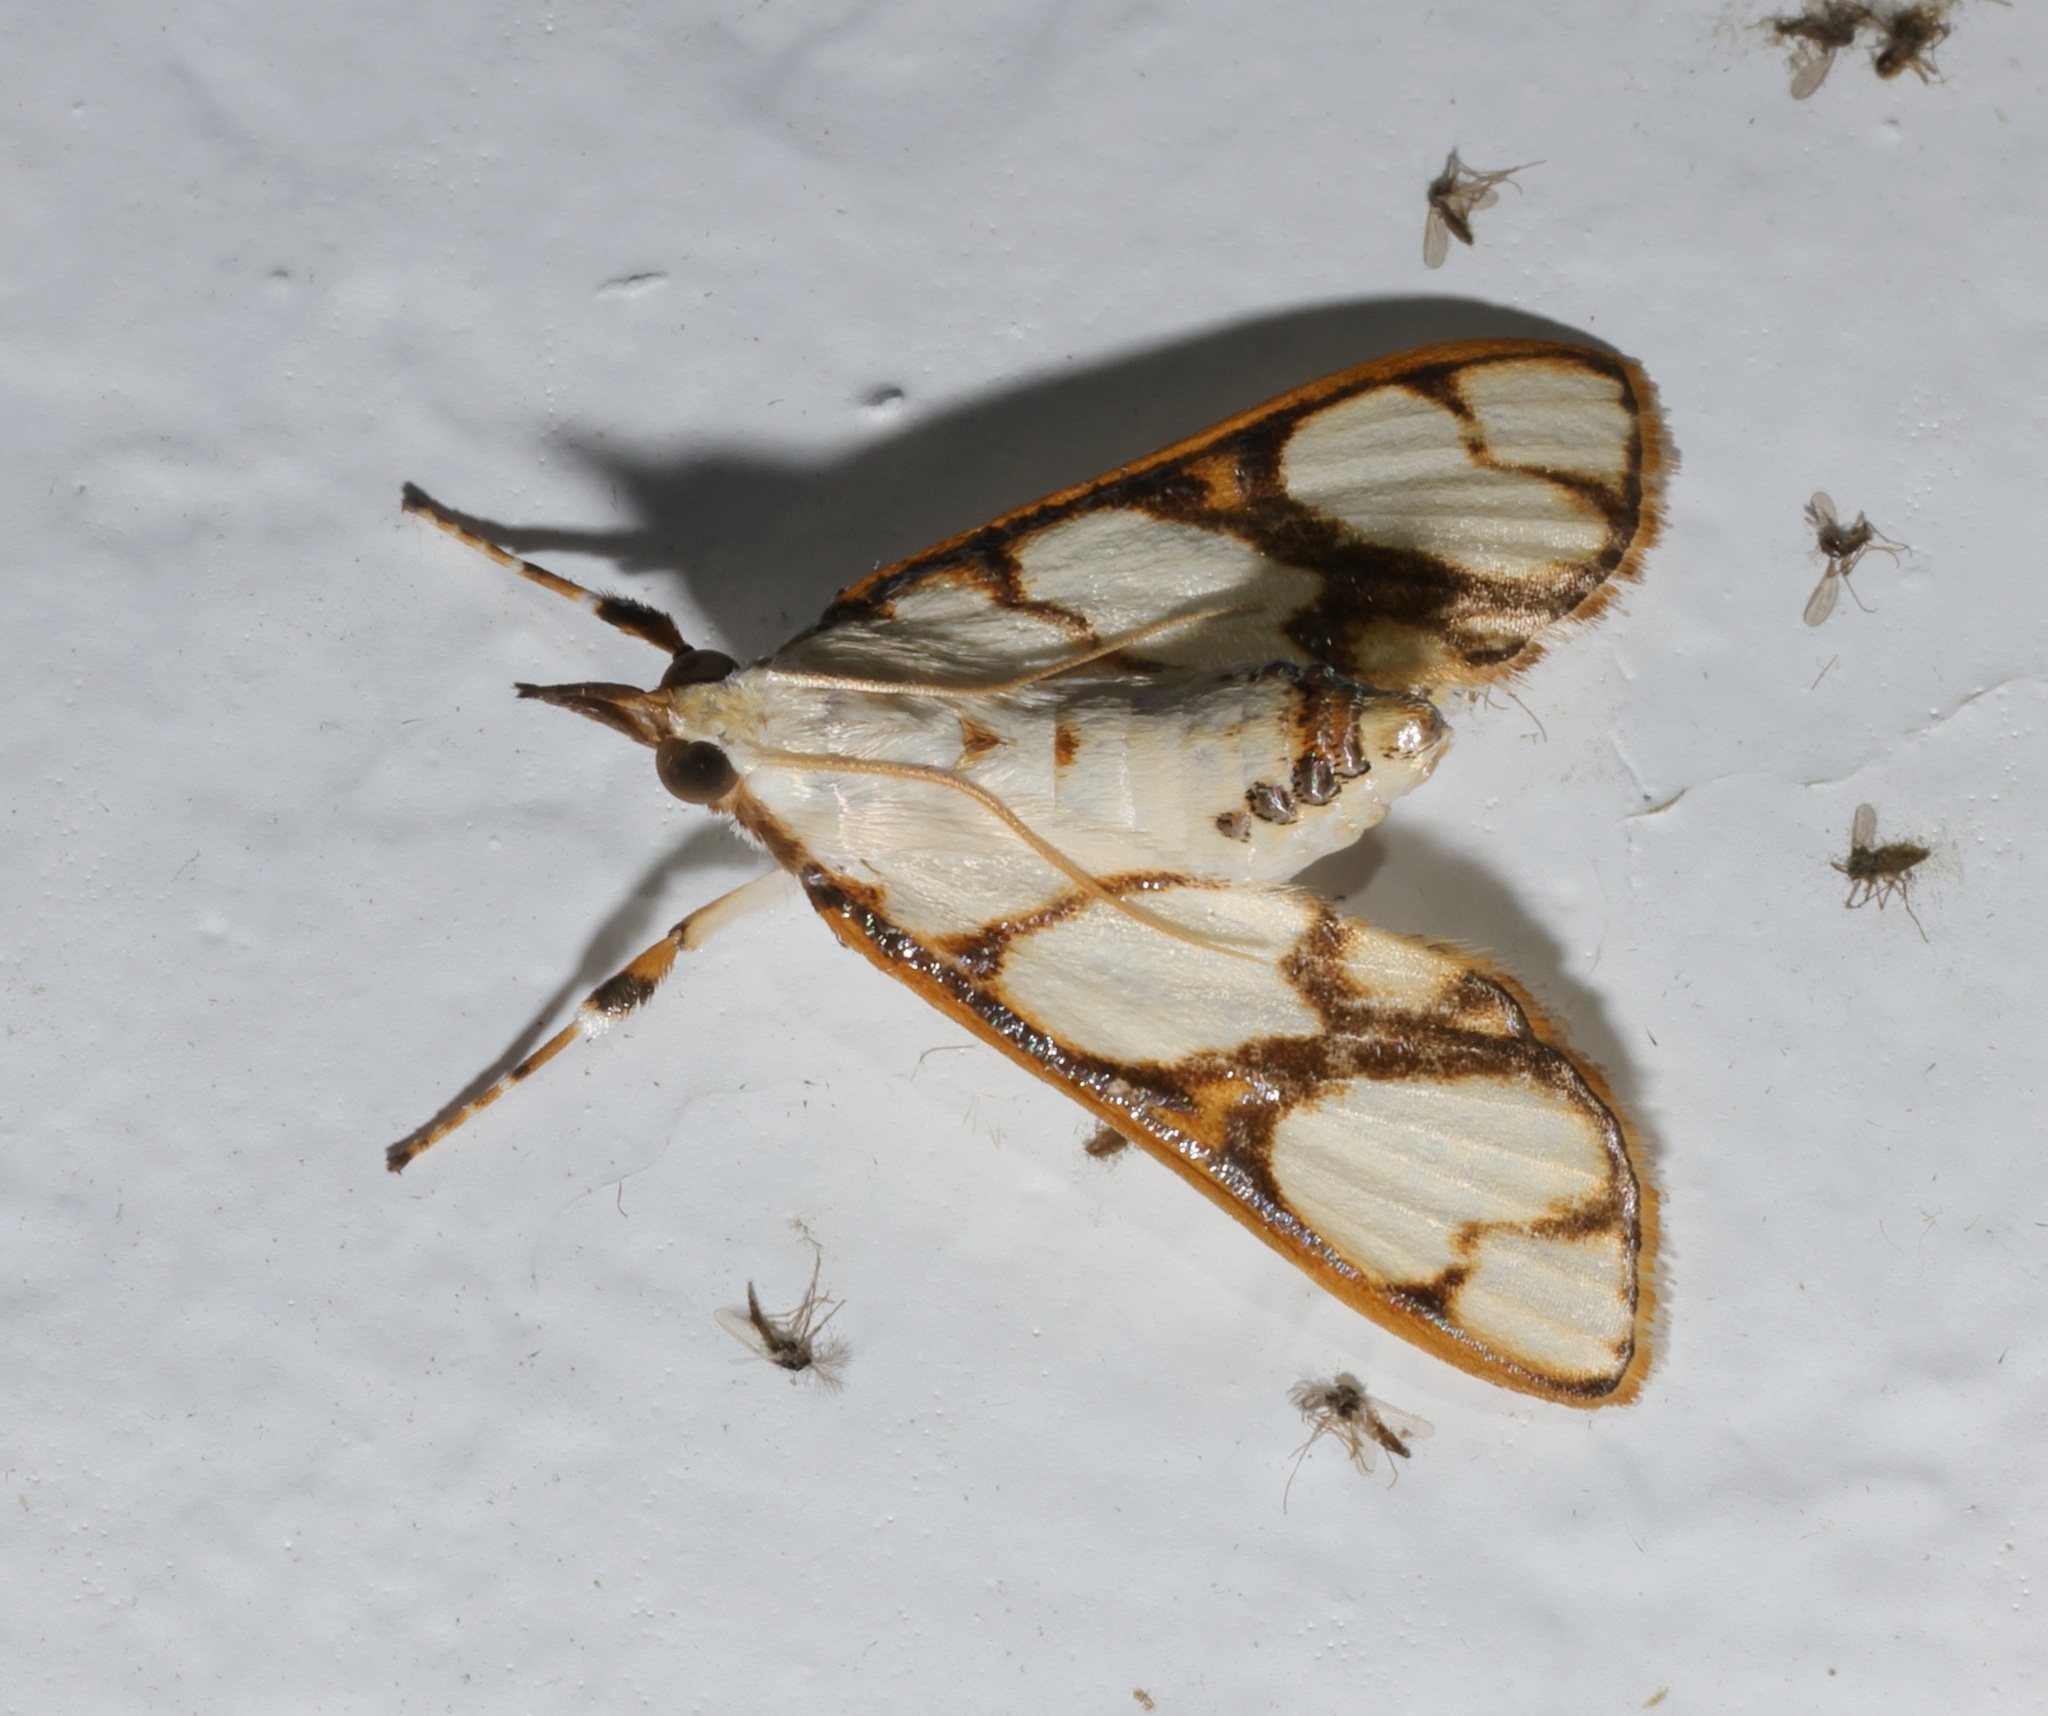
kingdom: Animalia
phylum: Arthropoda
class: Insecta
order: Lepidoptera
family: Crambidae
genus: Cirrhochrista
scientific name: Cirrhochrista fumipalpis
